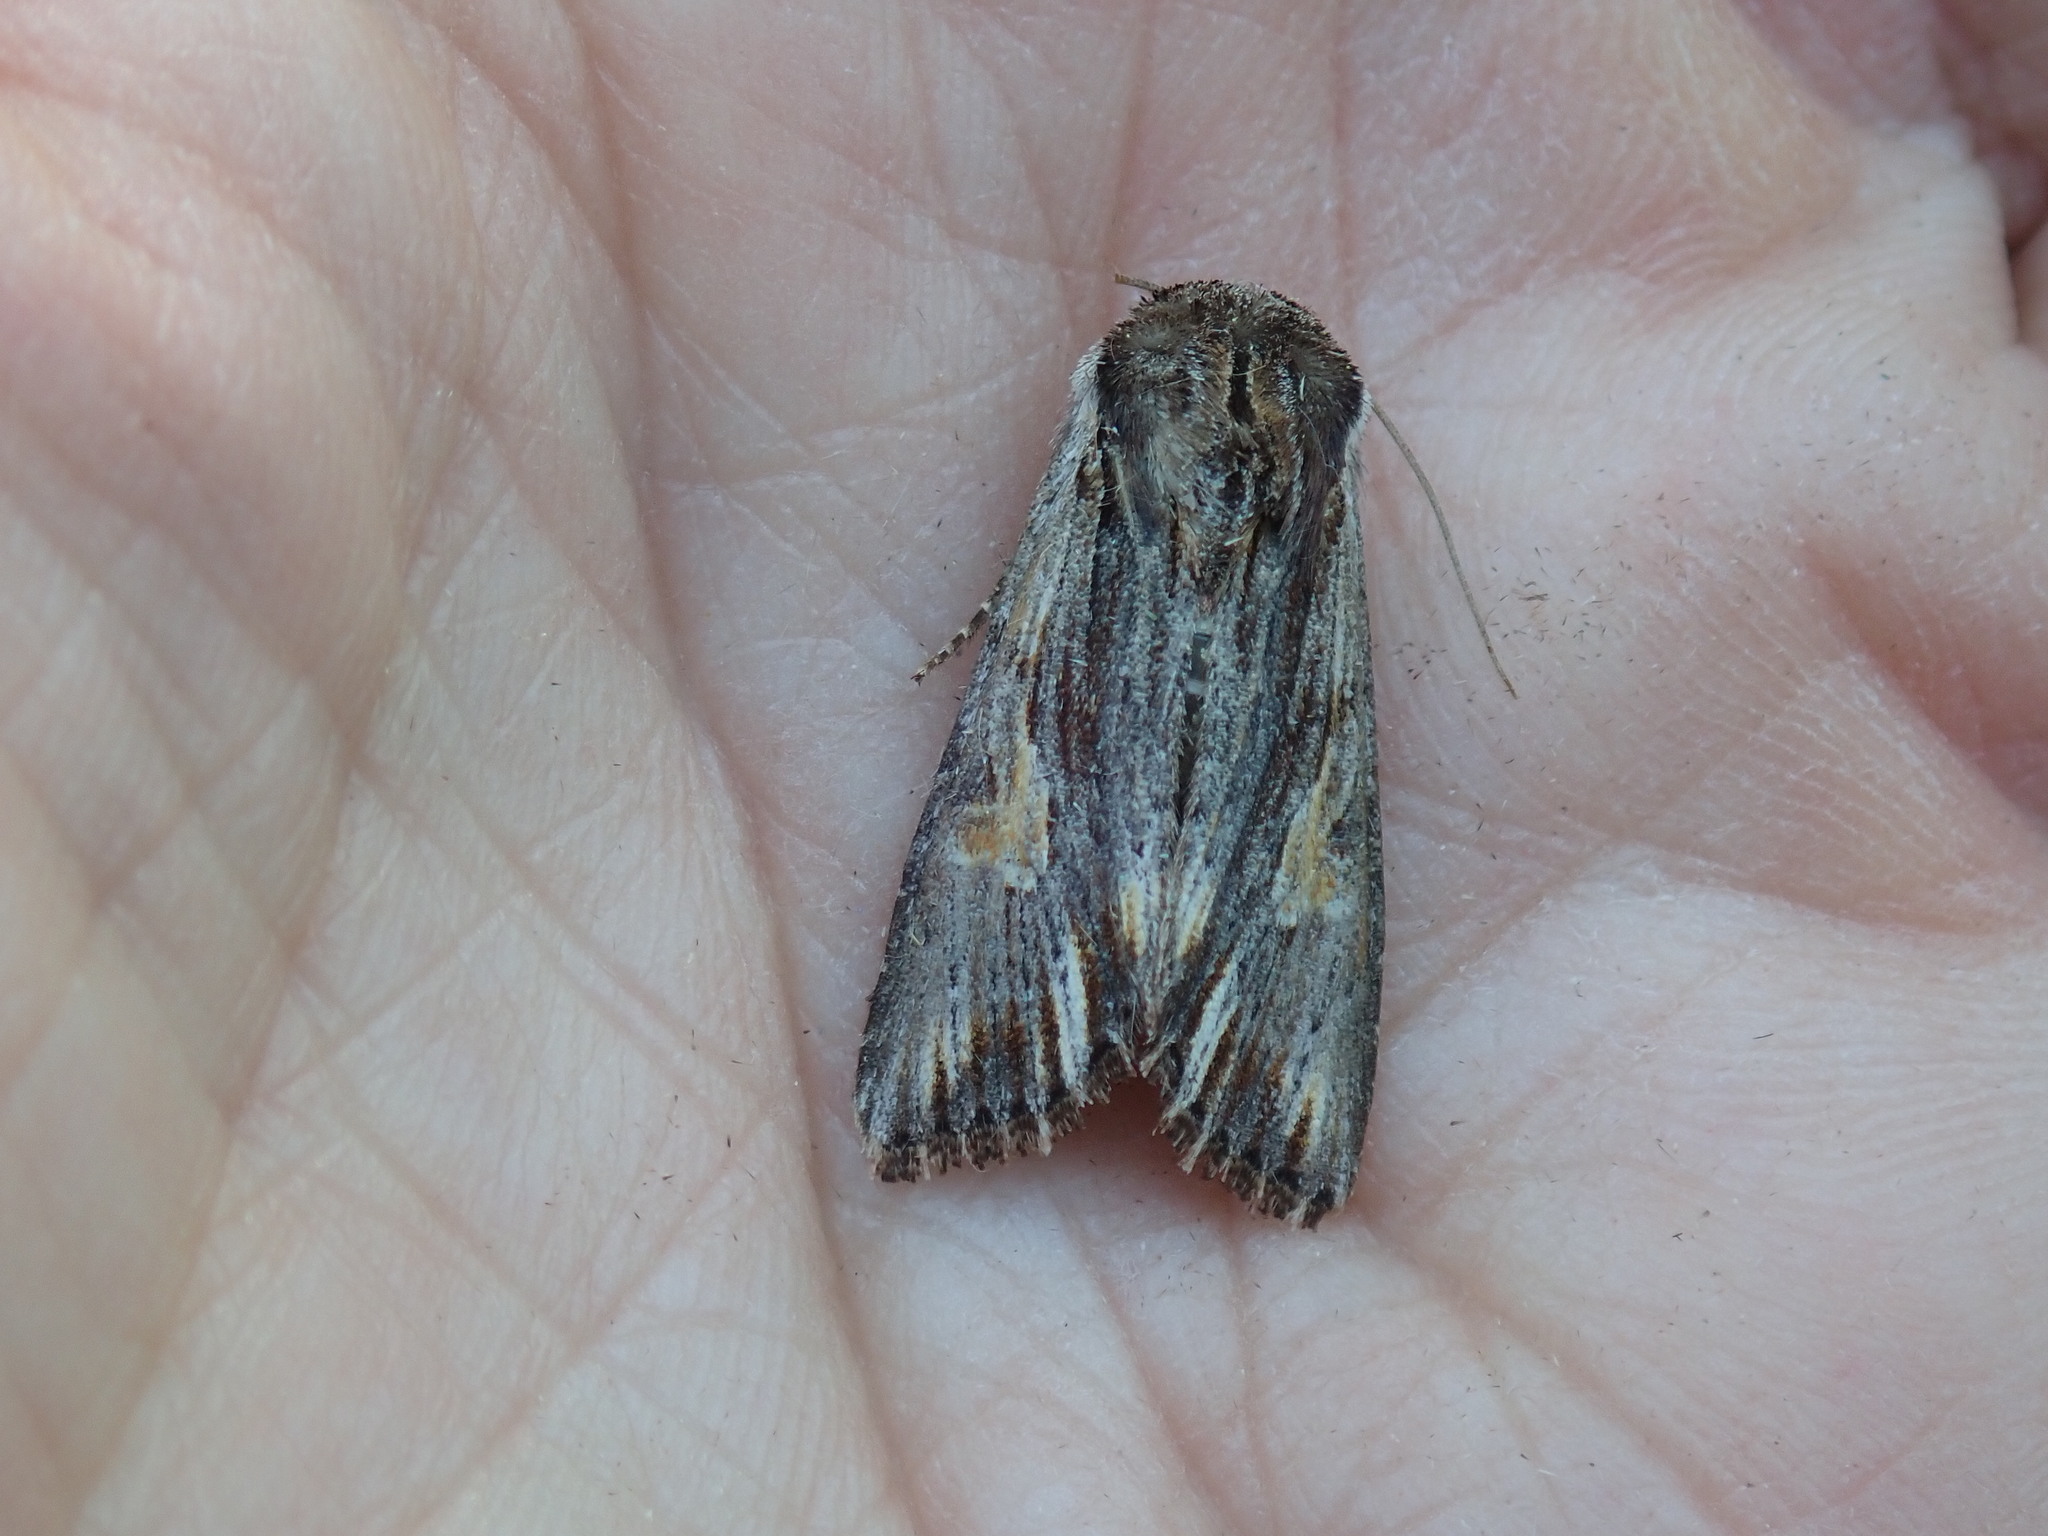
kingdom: Animalia
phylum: Arthropoda
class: Insecta
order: Lepidoptera
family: Noctuidae
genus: Achatia
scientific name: Achatia evicta
